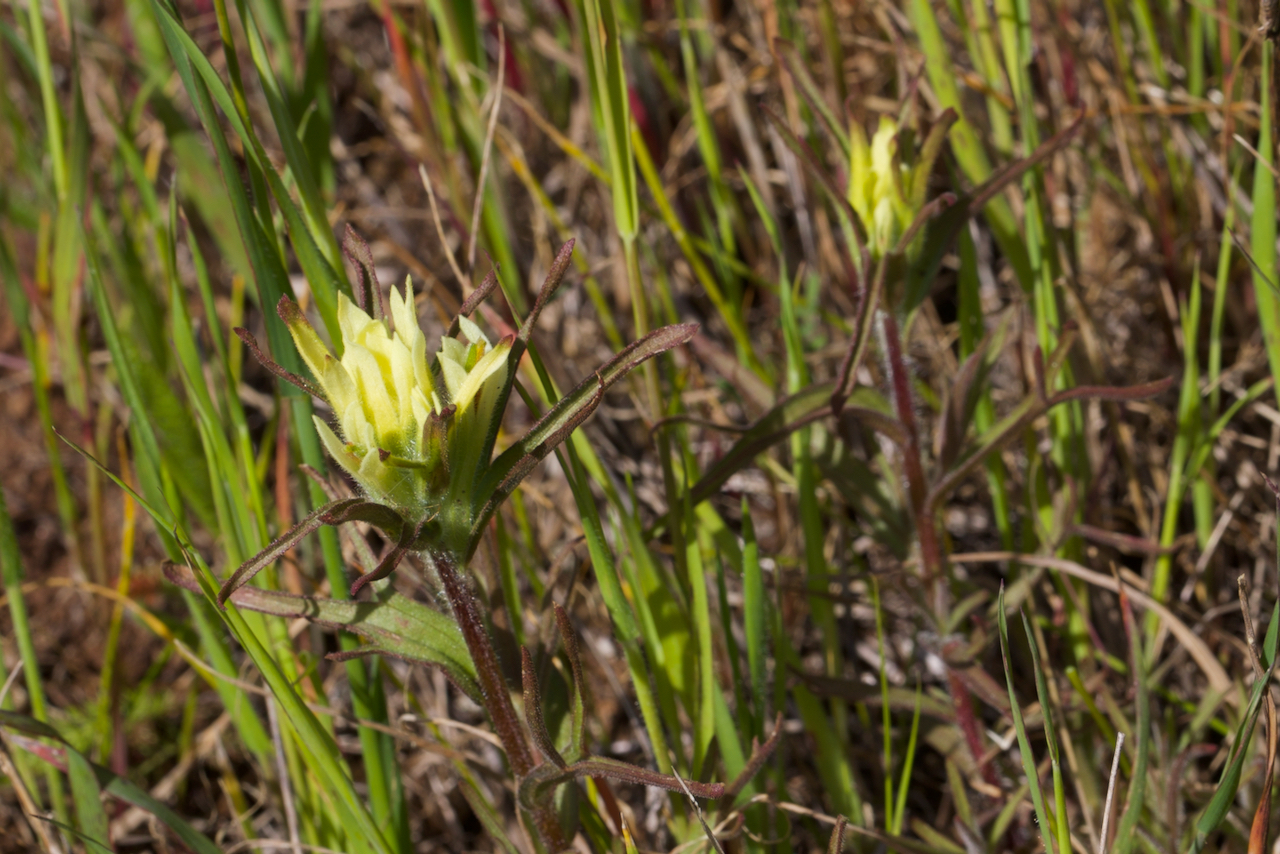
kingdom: Plantae
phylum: Tracheophyta
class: Magnoliopsida
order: Lamiales
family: Orobanchaceae
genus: Castilleja
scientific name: Castilleja affinis
